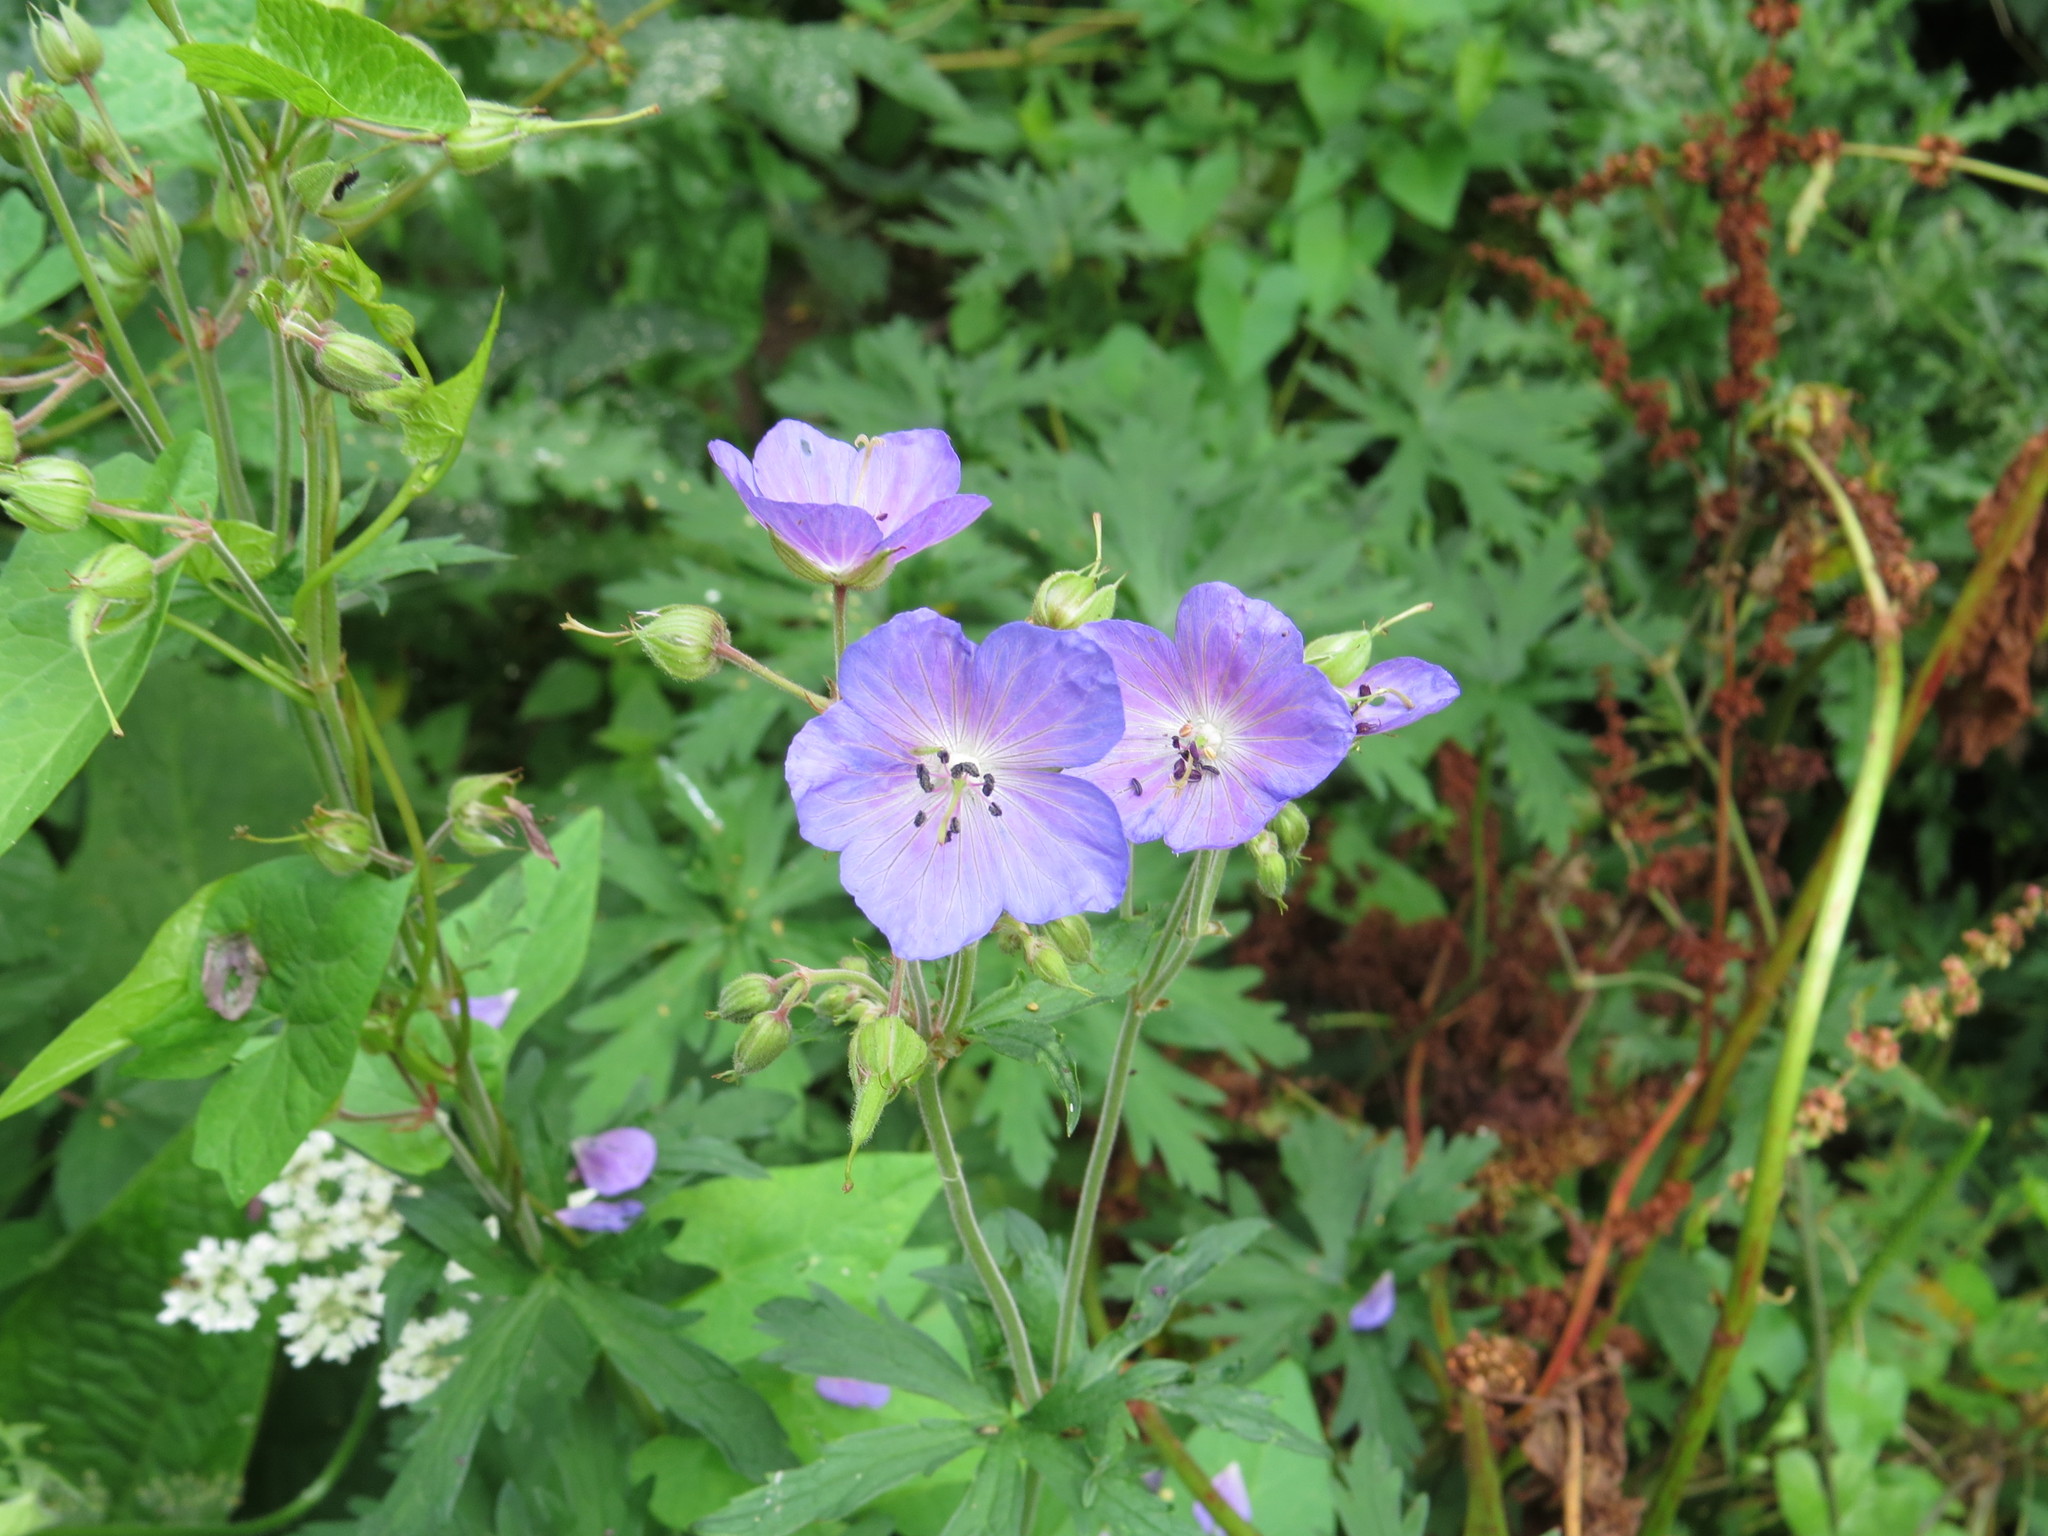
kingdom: Plantae
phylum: Tracheophyta
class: Magnoliopsida
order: Geraniales
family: Geraniaceae
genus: Geranium
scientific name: Geranium pratense
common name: Meadow crane's-bill
